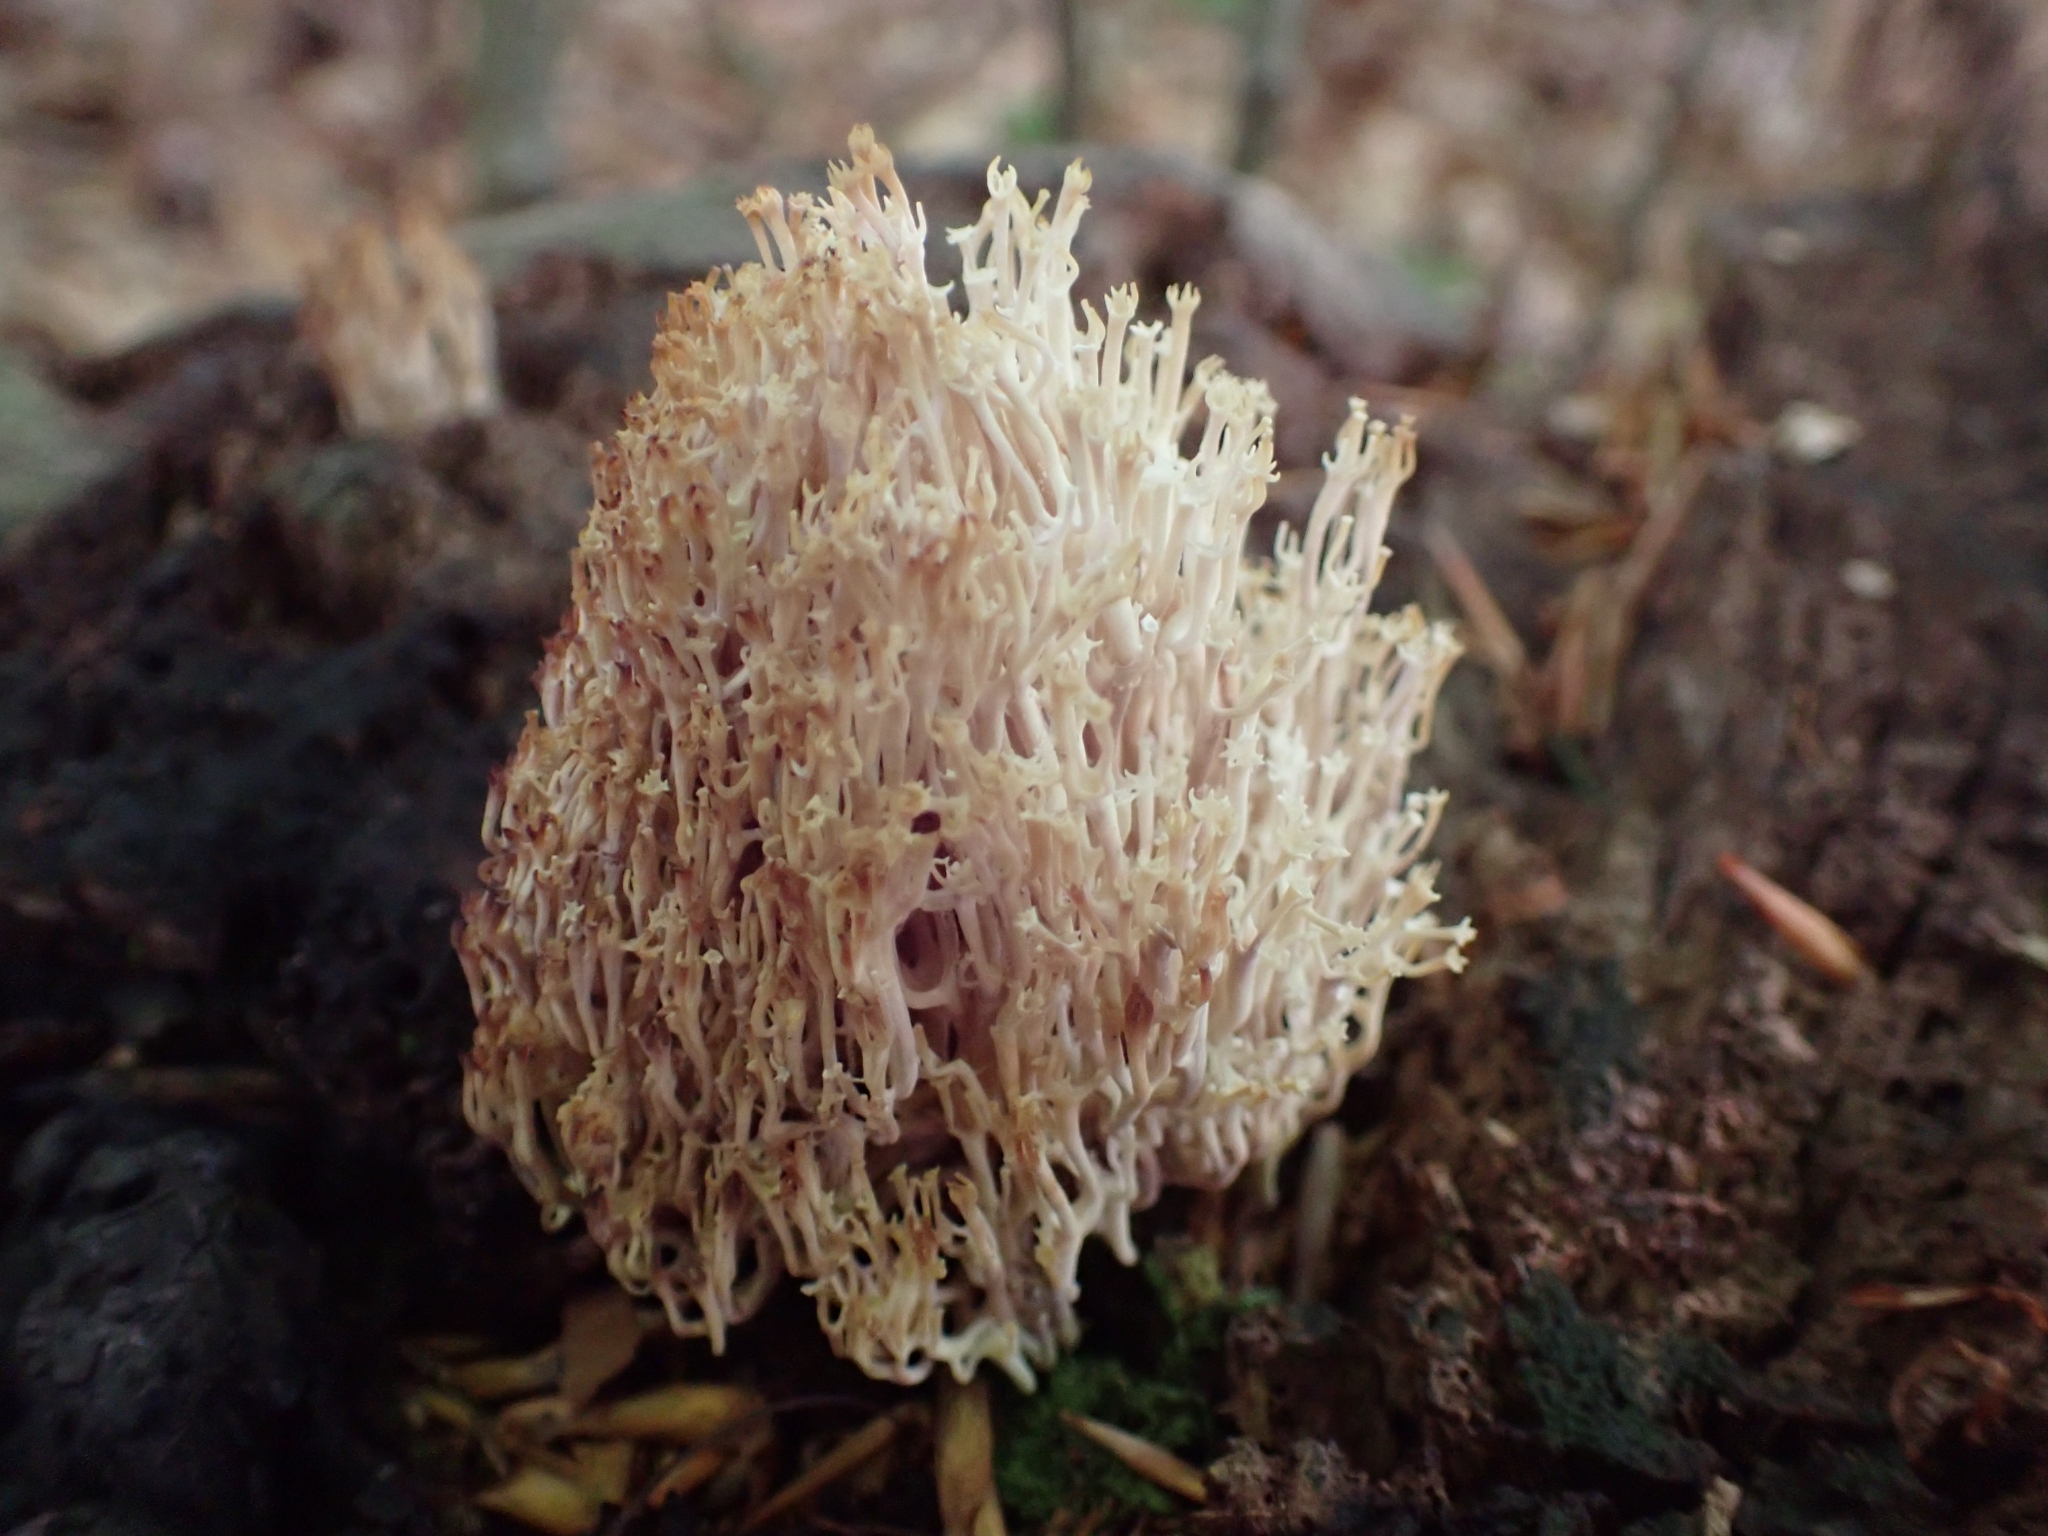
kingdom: Fungi
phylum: Basidiomycota
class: Agaricomycetes
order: Russulales
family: Auriscalpiaceae
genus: Artomyces
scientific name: Artomyces pyxidatus
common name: Crown-tipped coral fungus
